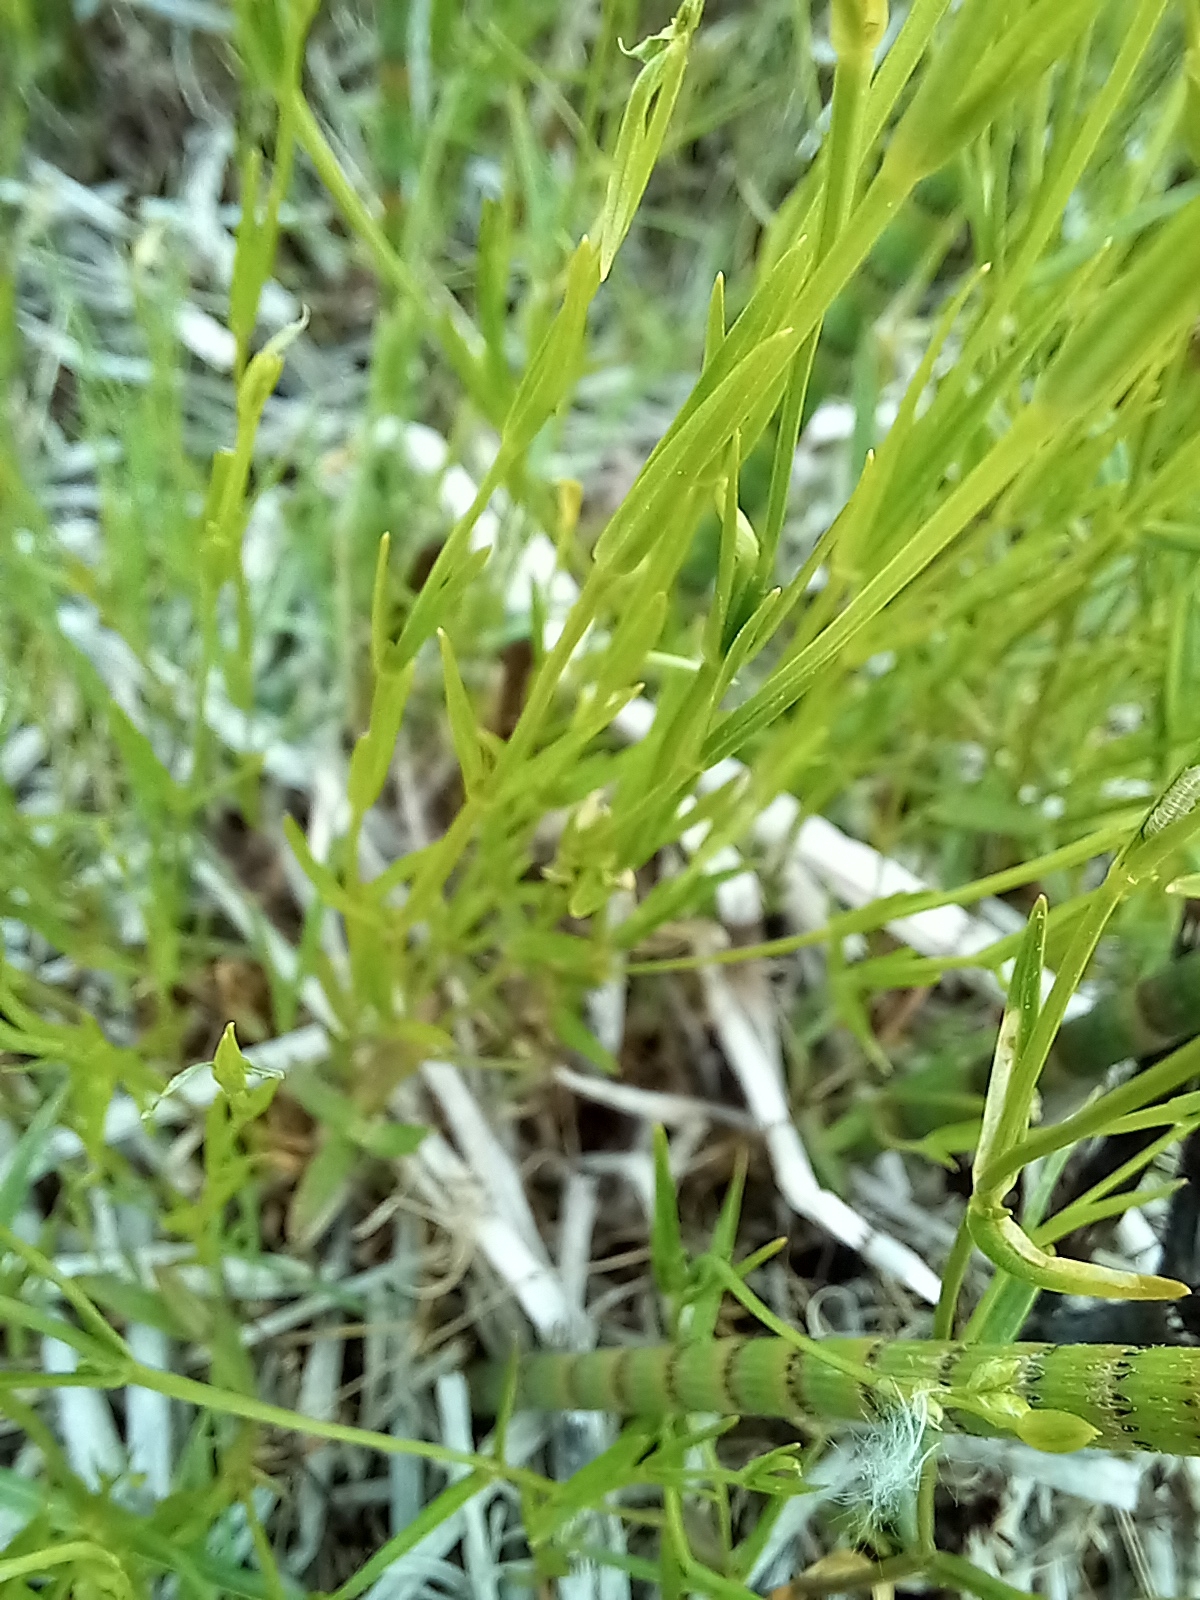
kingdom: Plantae
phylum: Tracheophyta
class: Magnoliopsida
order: Caryophyllales
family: Caryophyllaceae
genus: Stellaria
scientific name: Stellaria graminea
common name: Grass-like starwort
